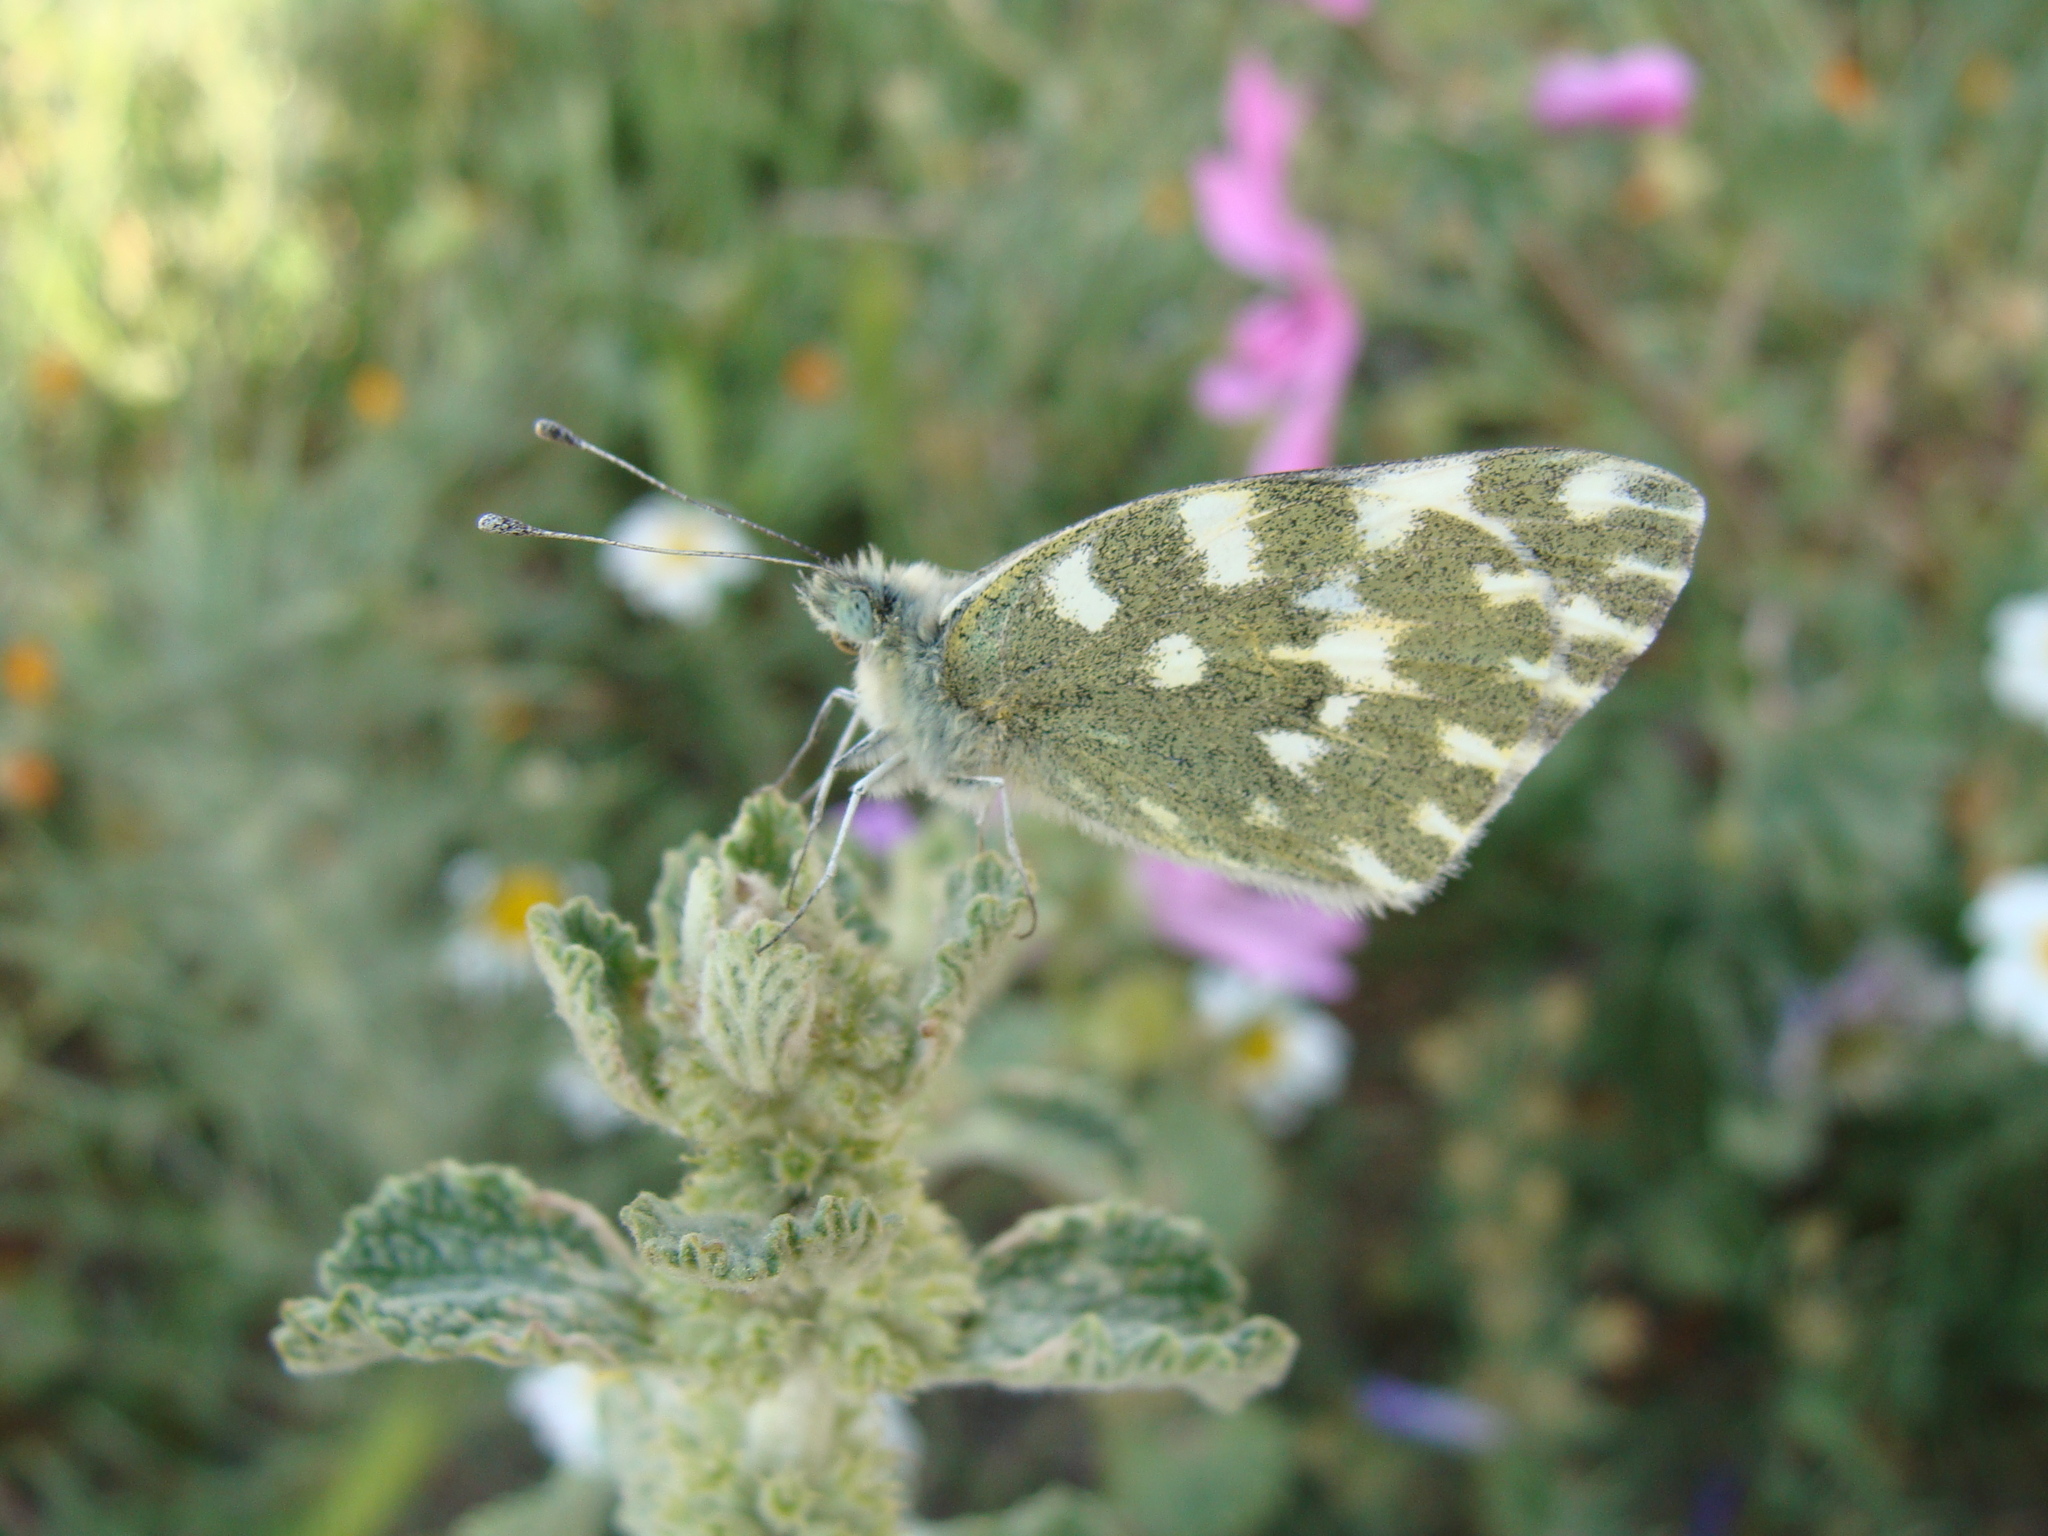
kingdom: Animalia
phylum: Arthropoda
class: Insecta
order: Lepidoptera
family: Pieridae
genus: Pontia
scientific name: Pontia daplidice
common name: Bath white
